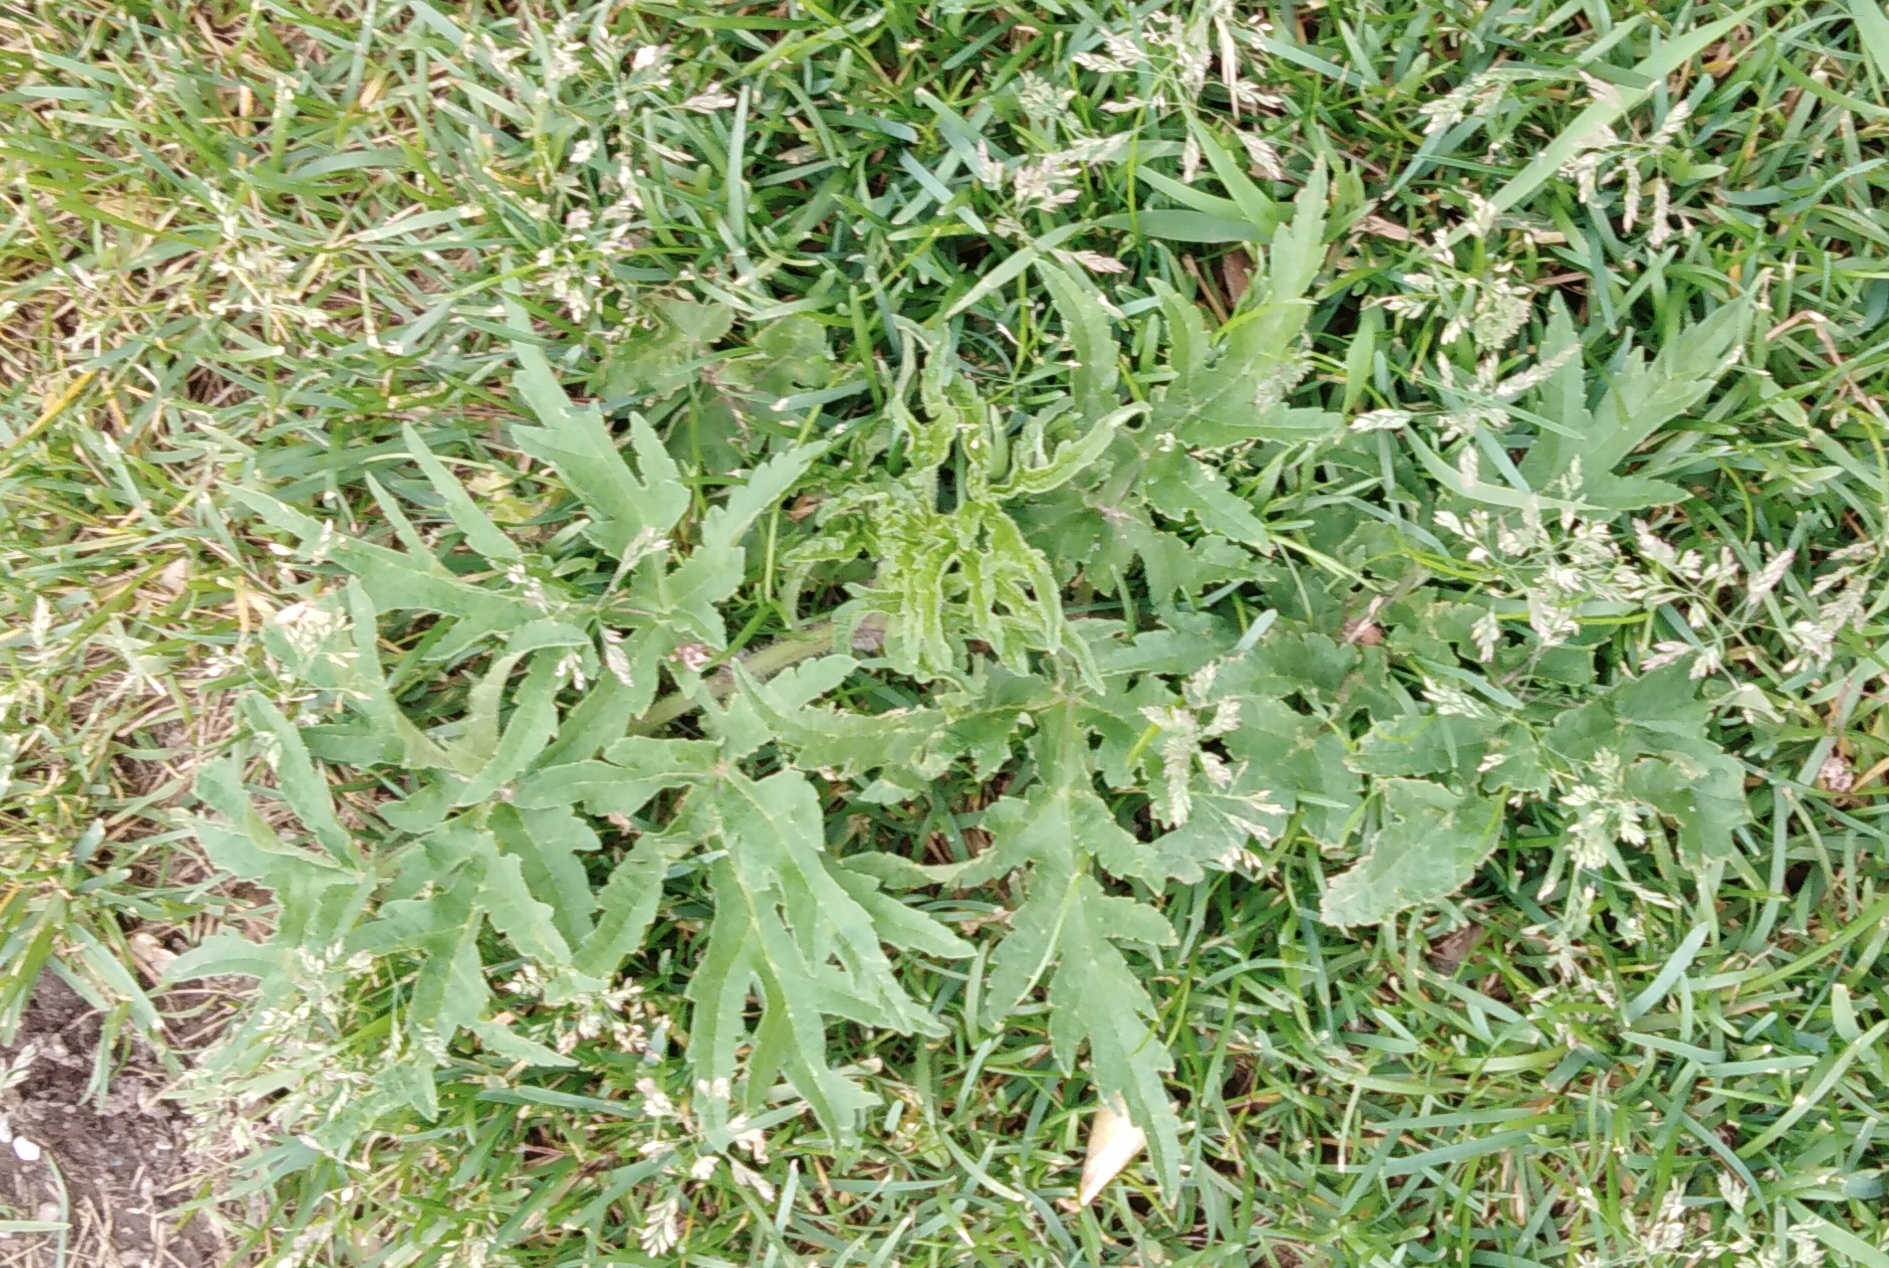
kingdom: Plantae
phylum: Tracheophyta
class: Magnoliopsida
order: Apiales
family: Apiaceae
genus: Heracleum
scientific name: Heracleum sphondylium
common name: Hogweed
